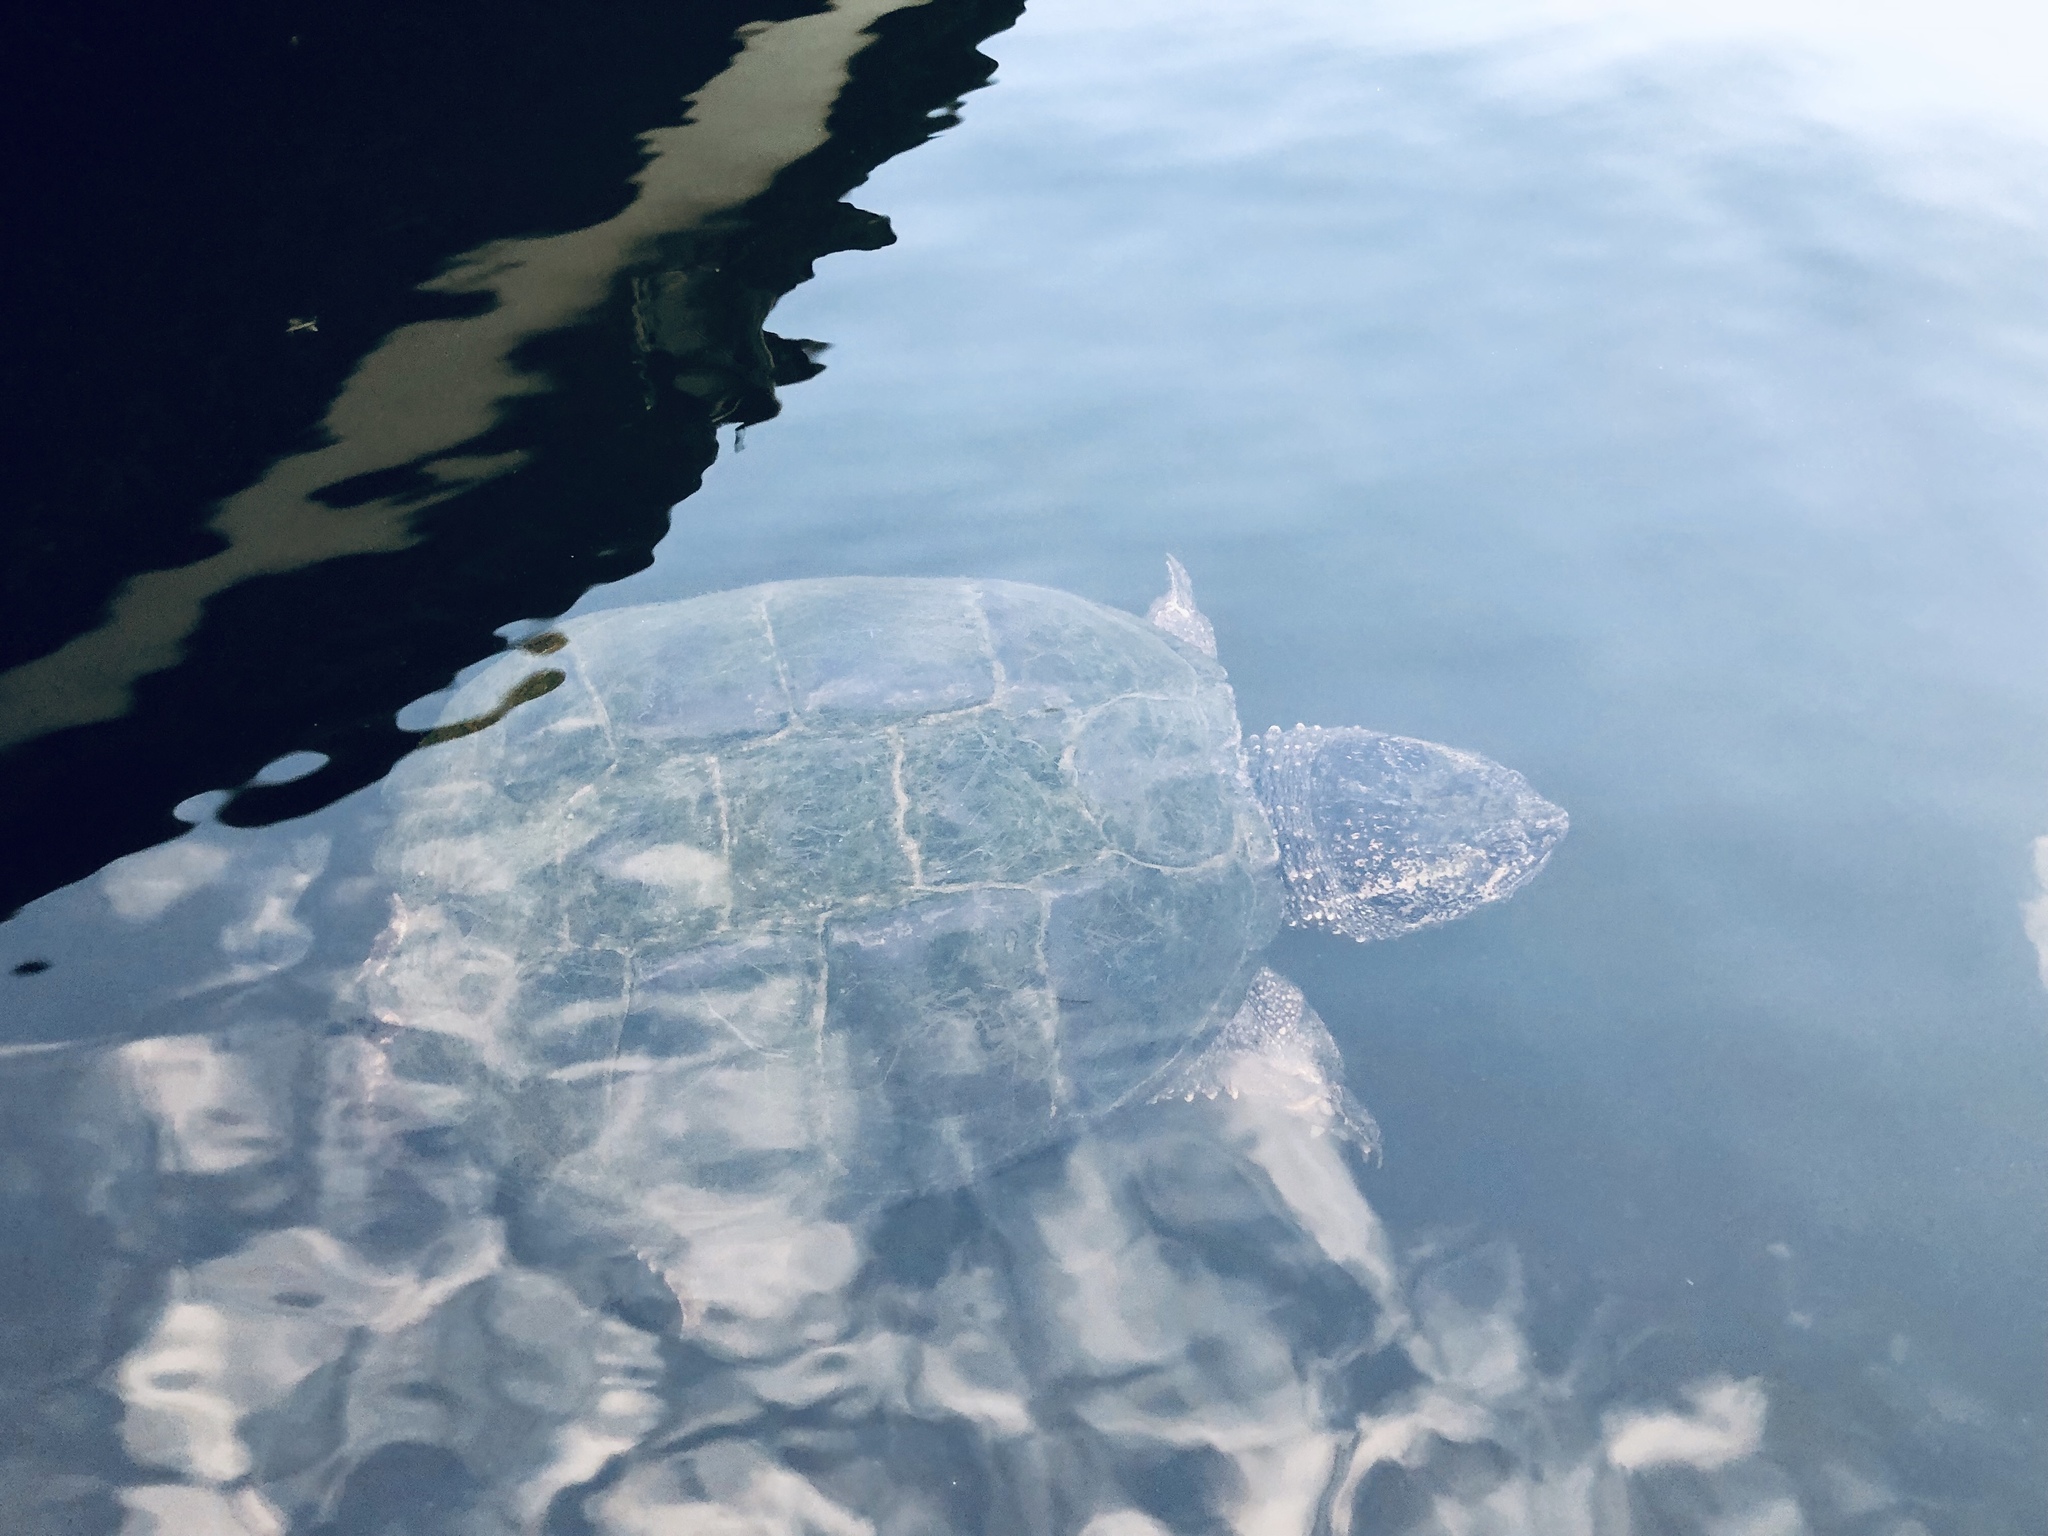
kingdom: Animalia
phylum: Chordata
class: Testudines
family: Chelydridae
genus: Chelydra
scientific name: Chelydra serpentina
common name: Common snapping turtle
